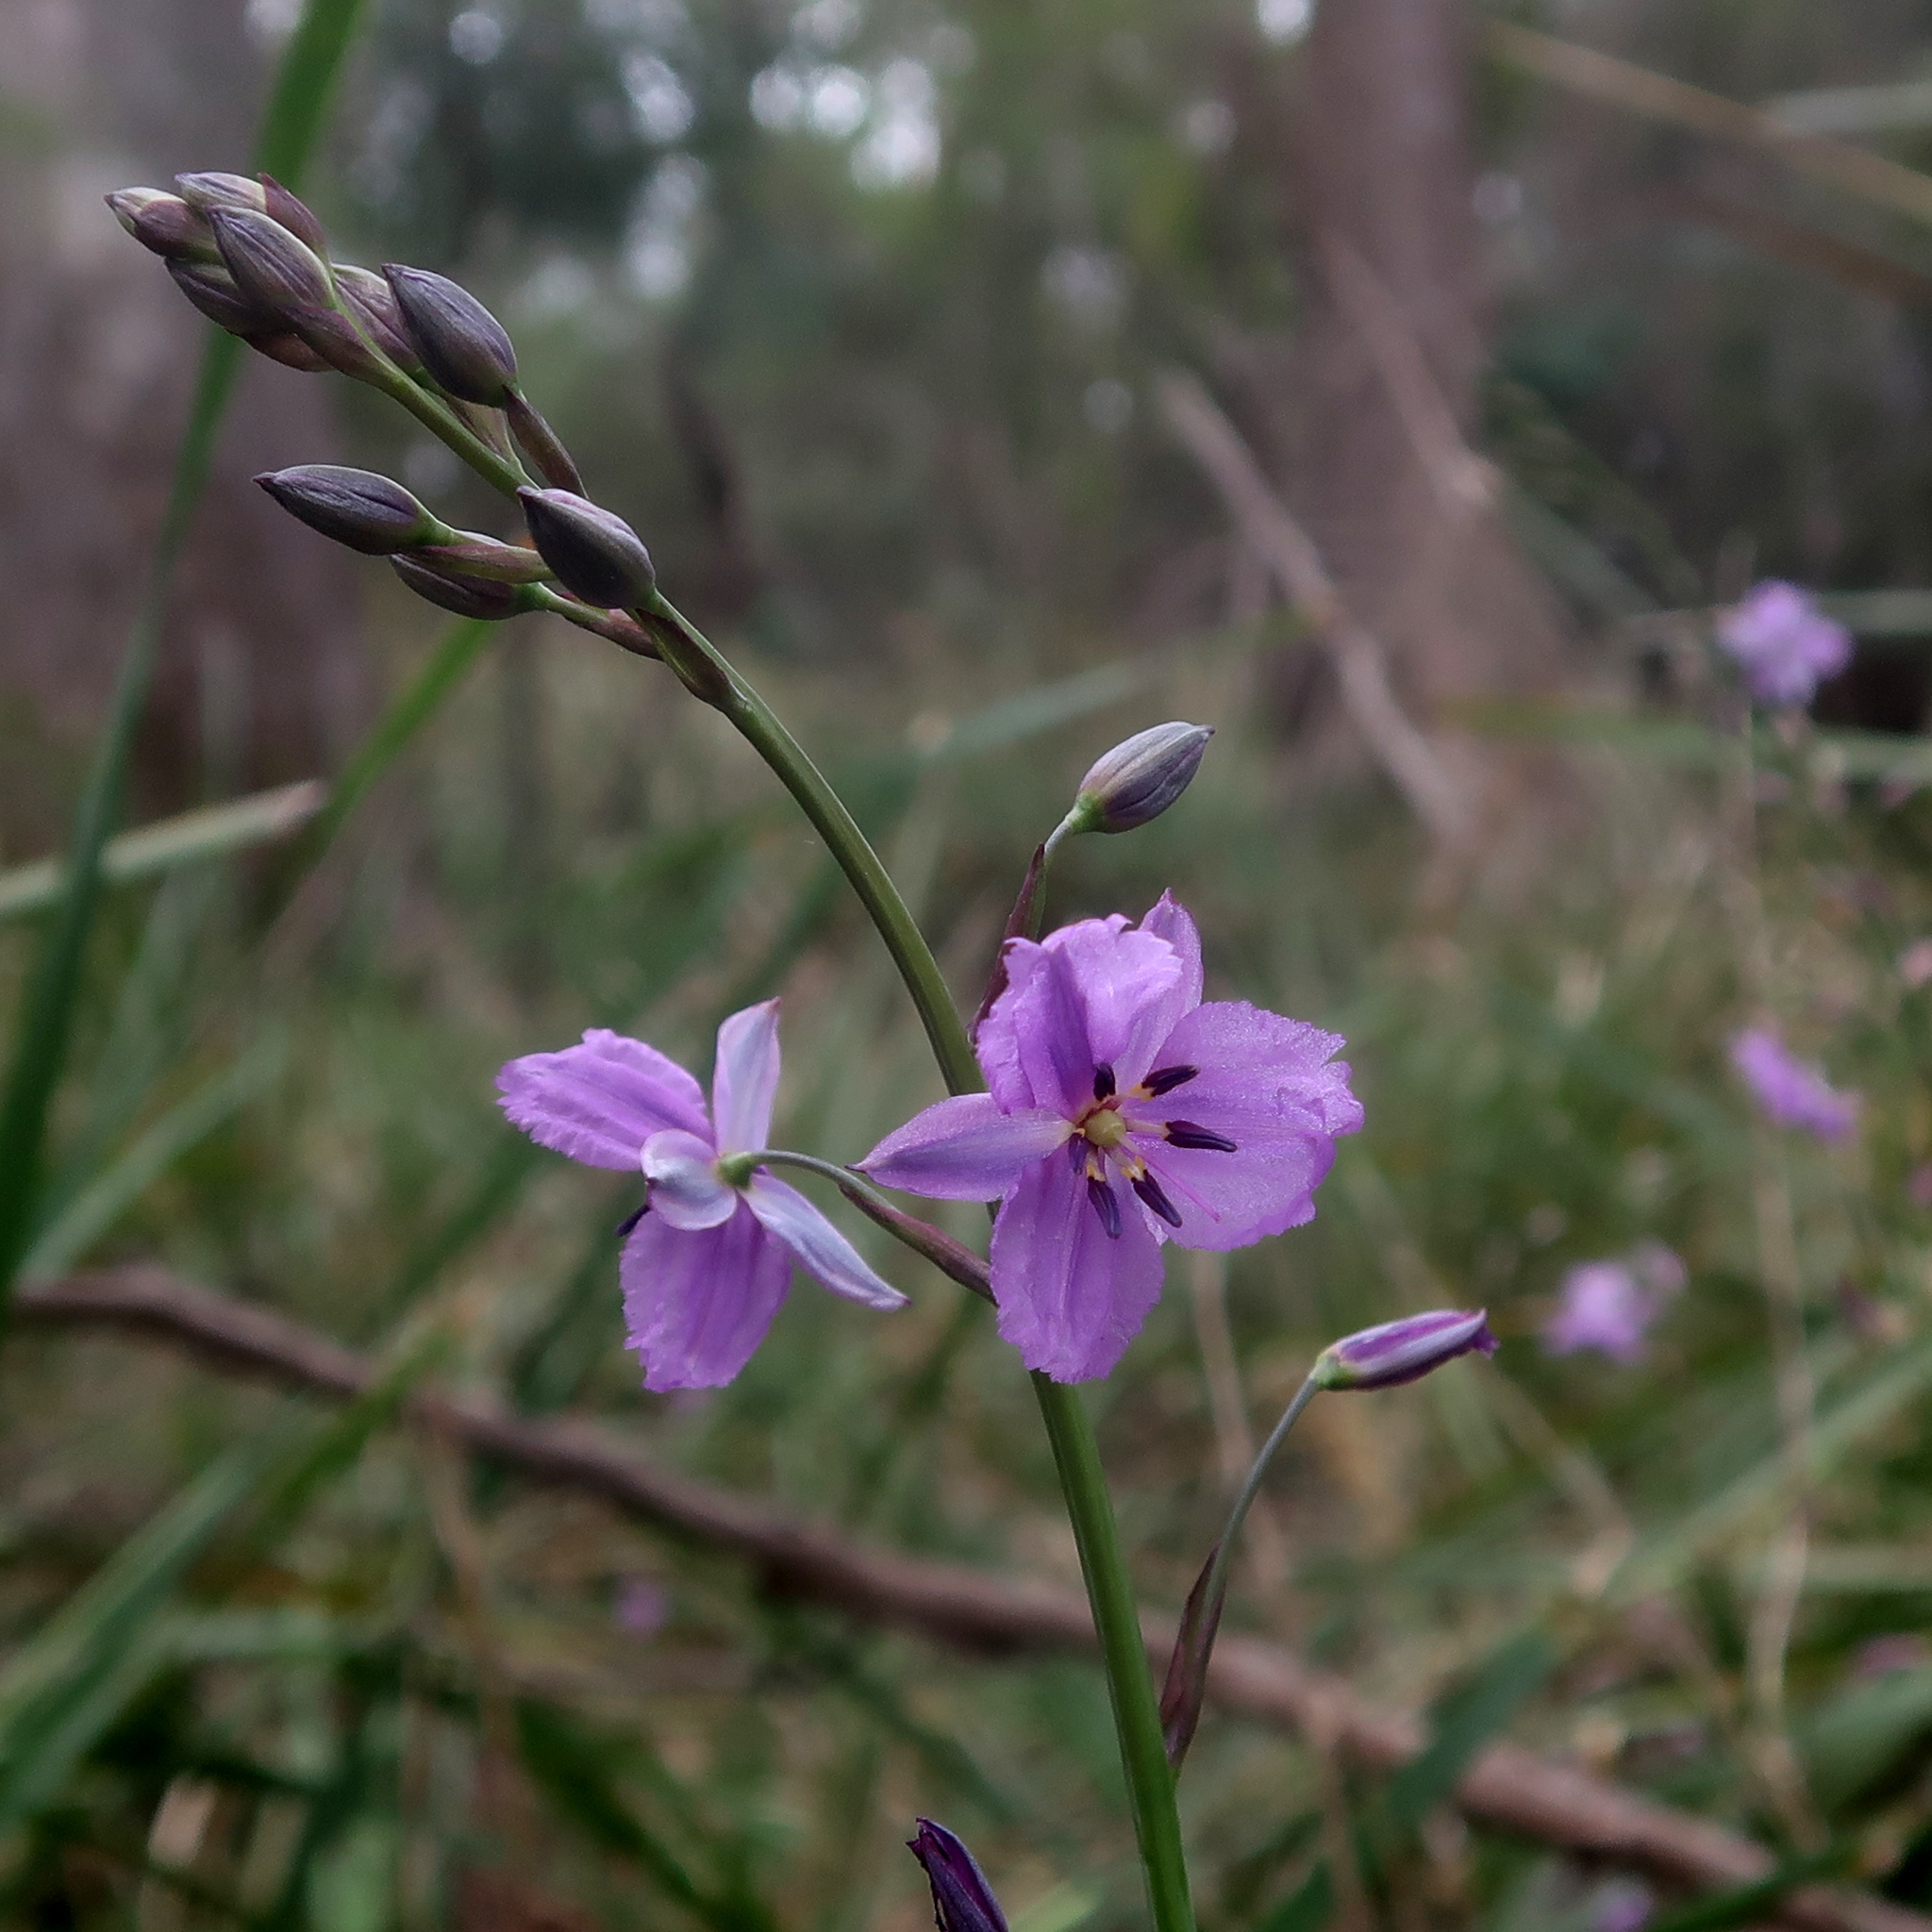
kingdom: Plantae
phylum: Tracheophyta
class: Liliopsida
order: Asparagales
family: Asparagaceae
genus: Arthropodium
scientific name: Arthropodium strictum
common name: Chocolate-lily
